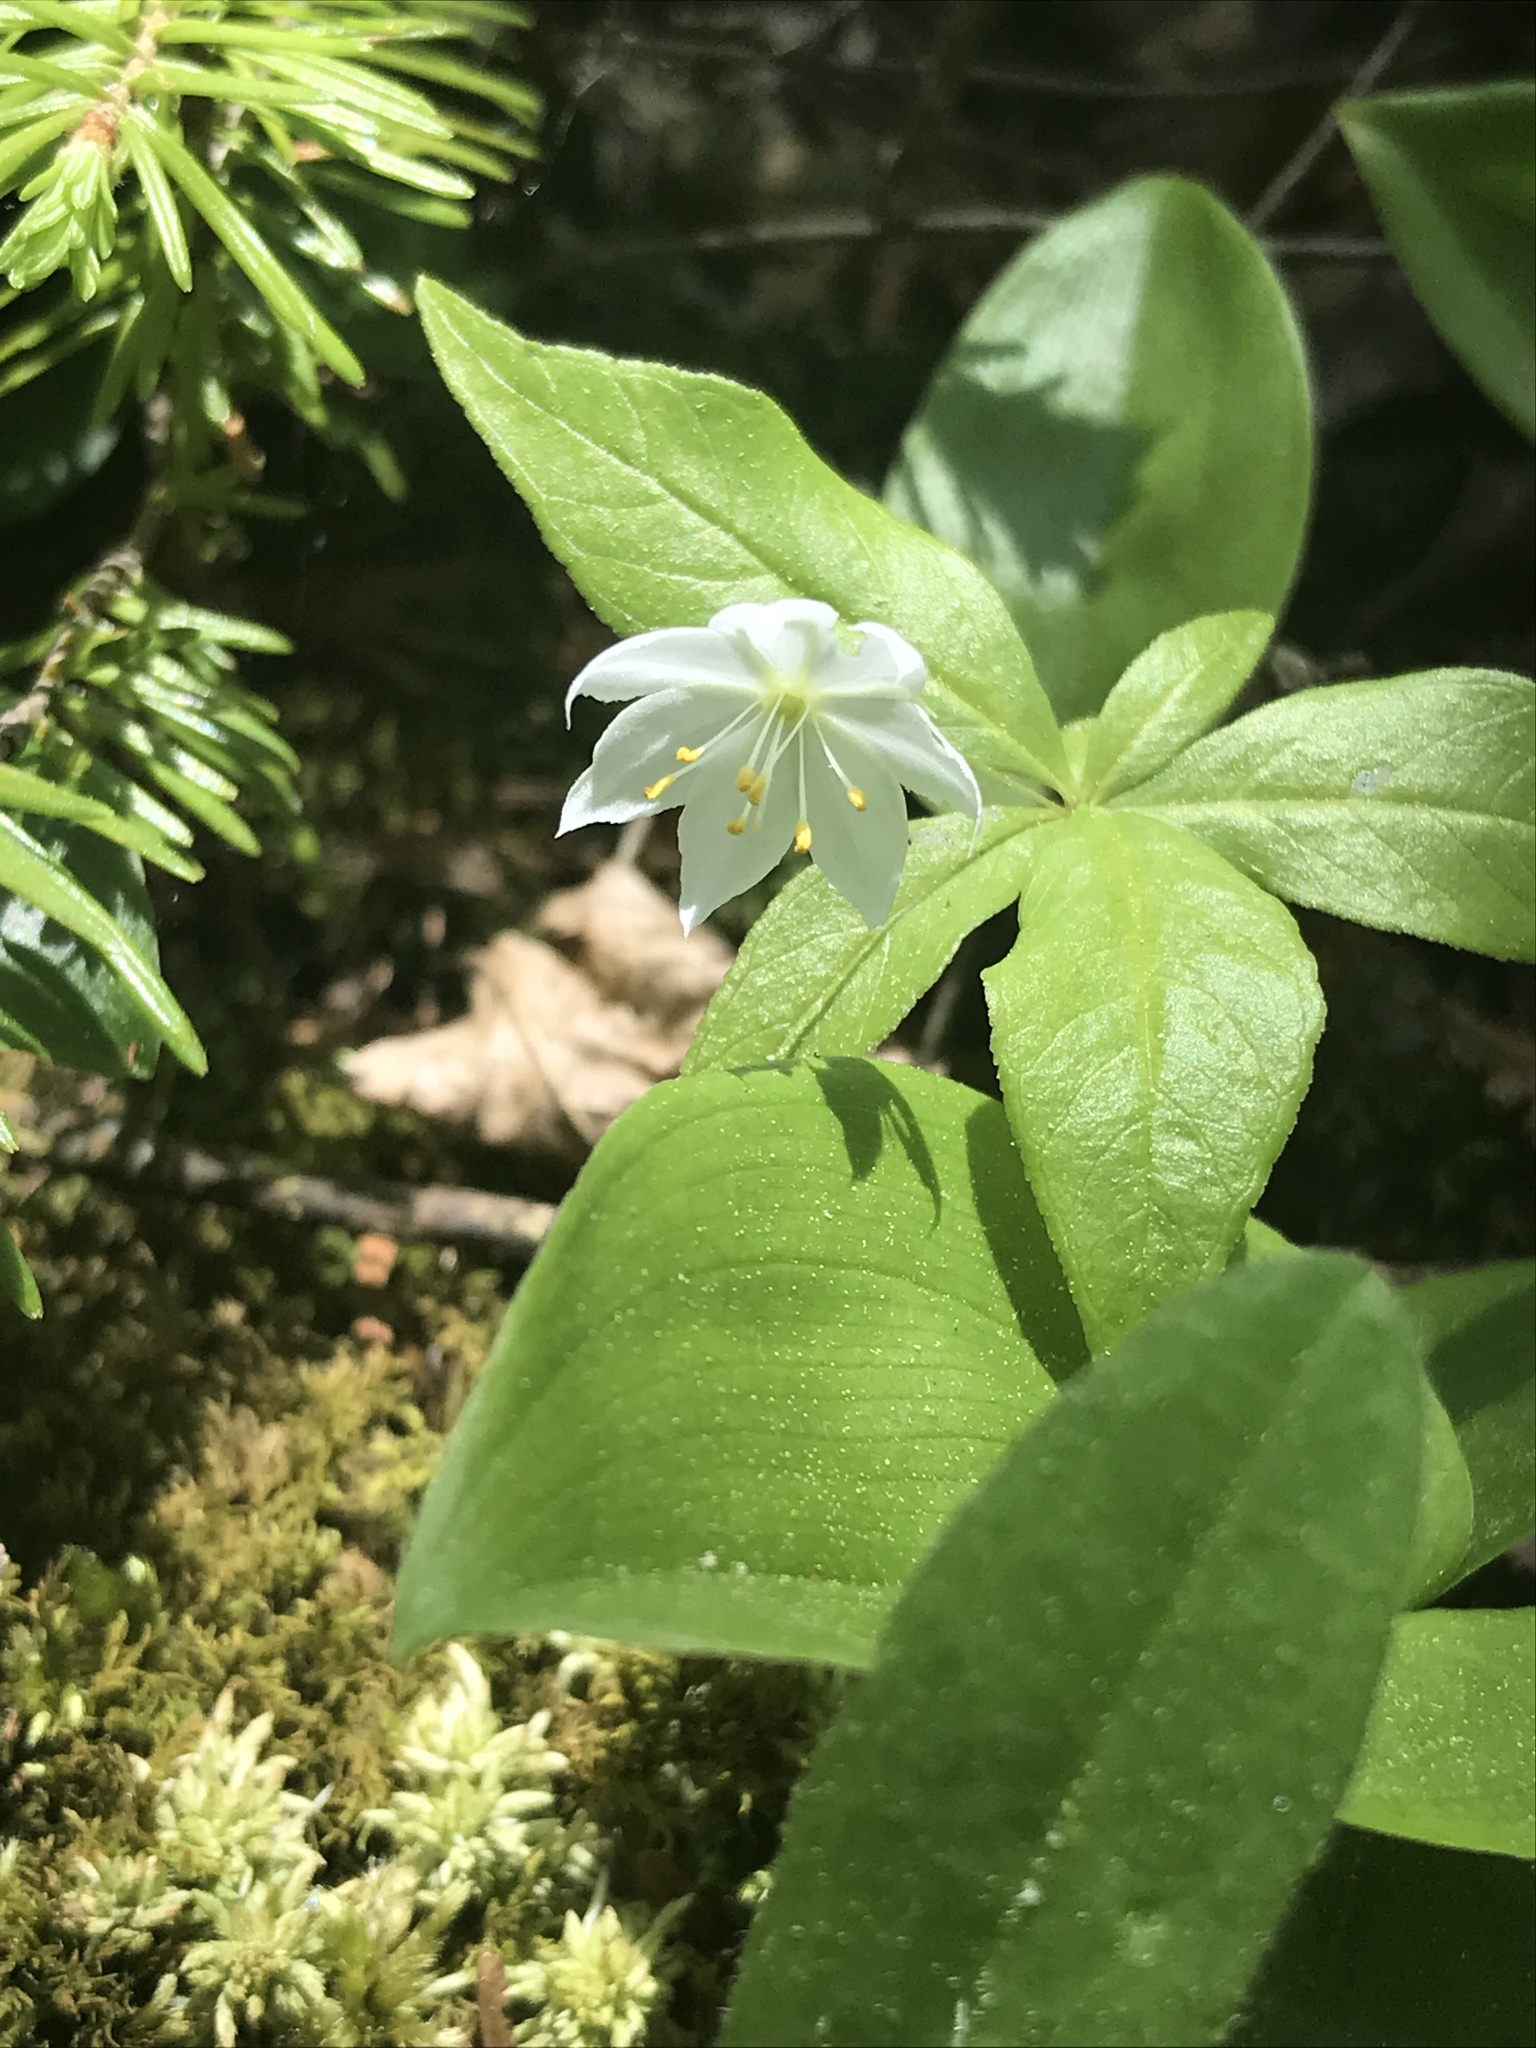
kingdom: Plantae
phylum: Tracheophyta
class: Magnoliopsida
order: Ericales
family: Primulaceae
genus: Lysimachia
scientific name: Lysimachia borealis
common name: American starflower
